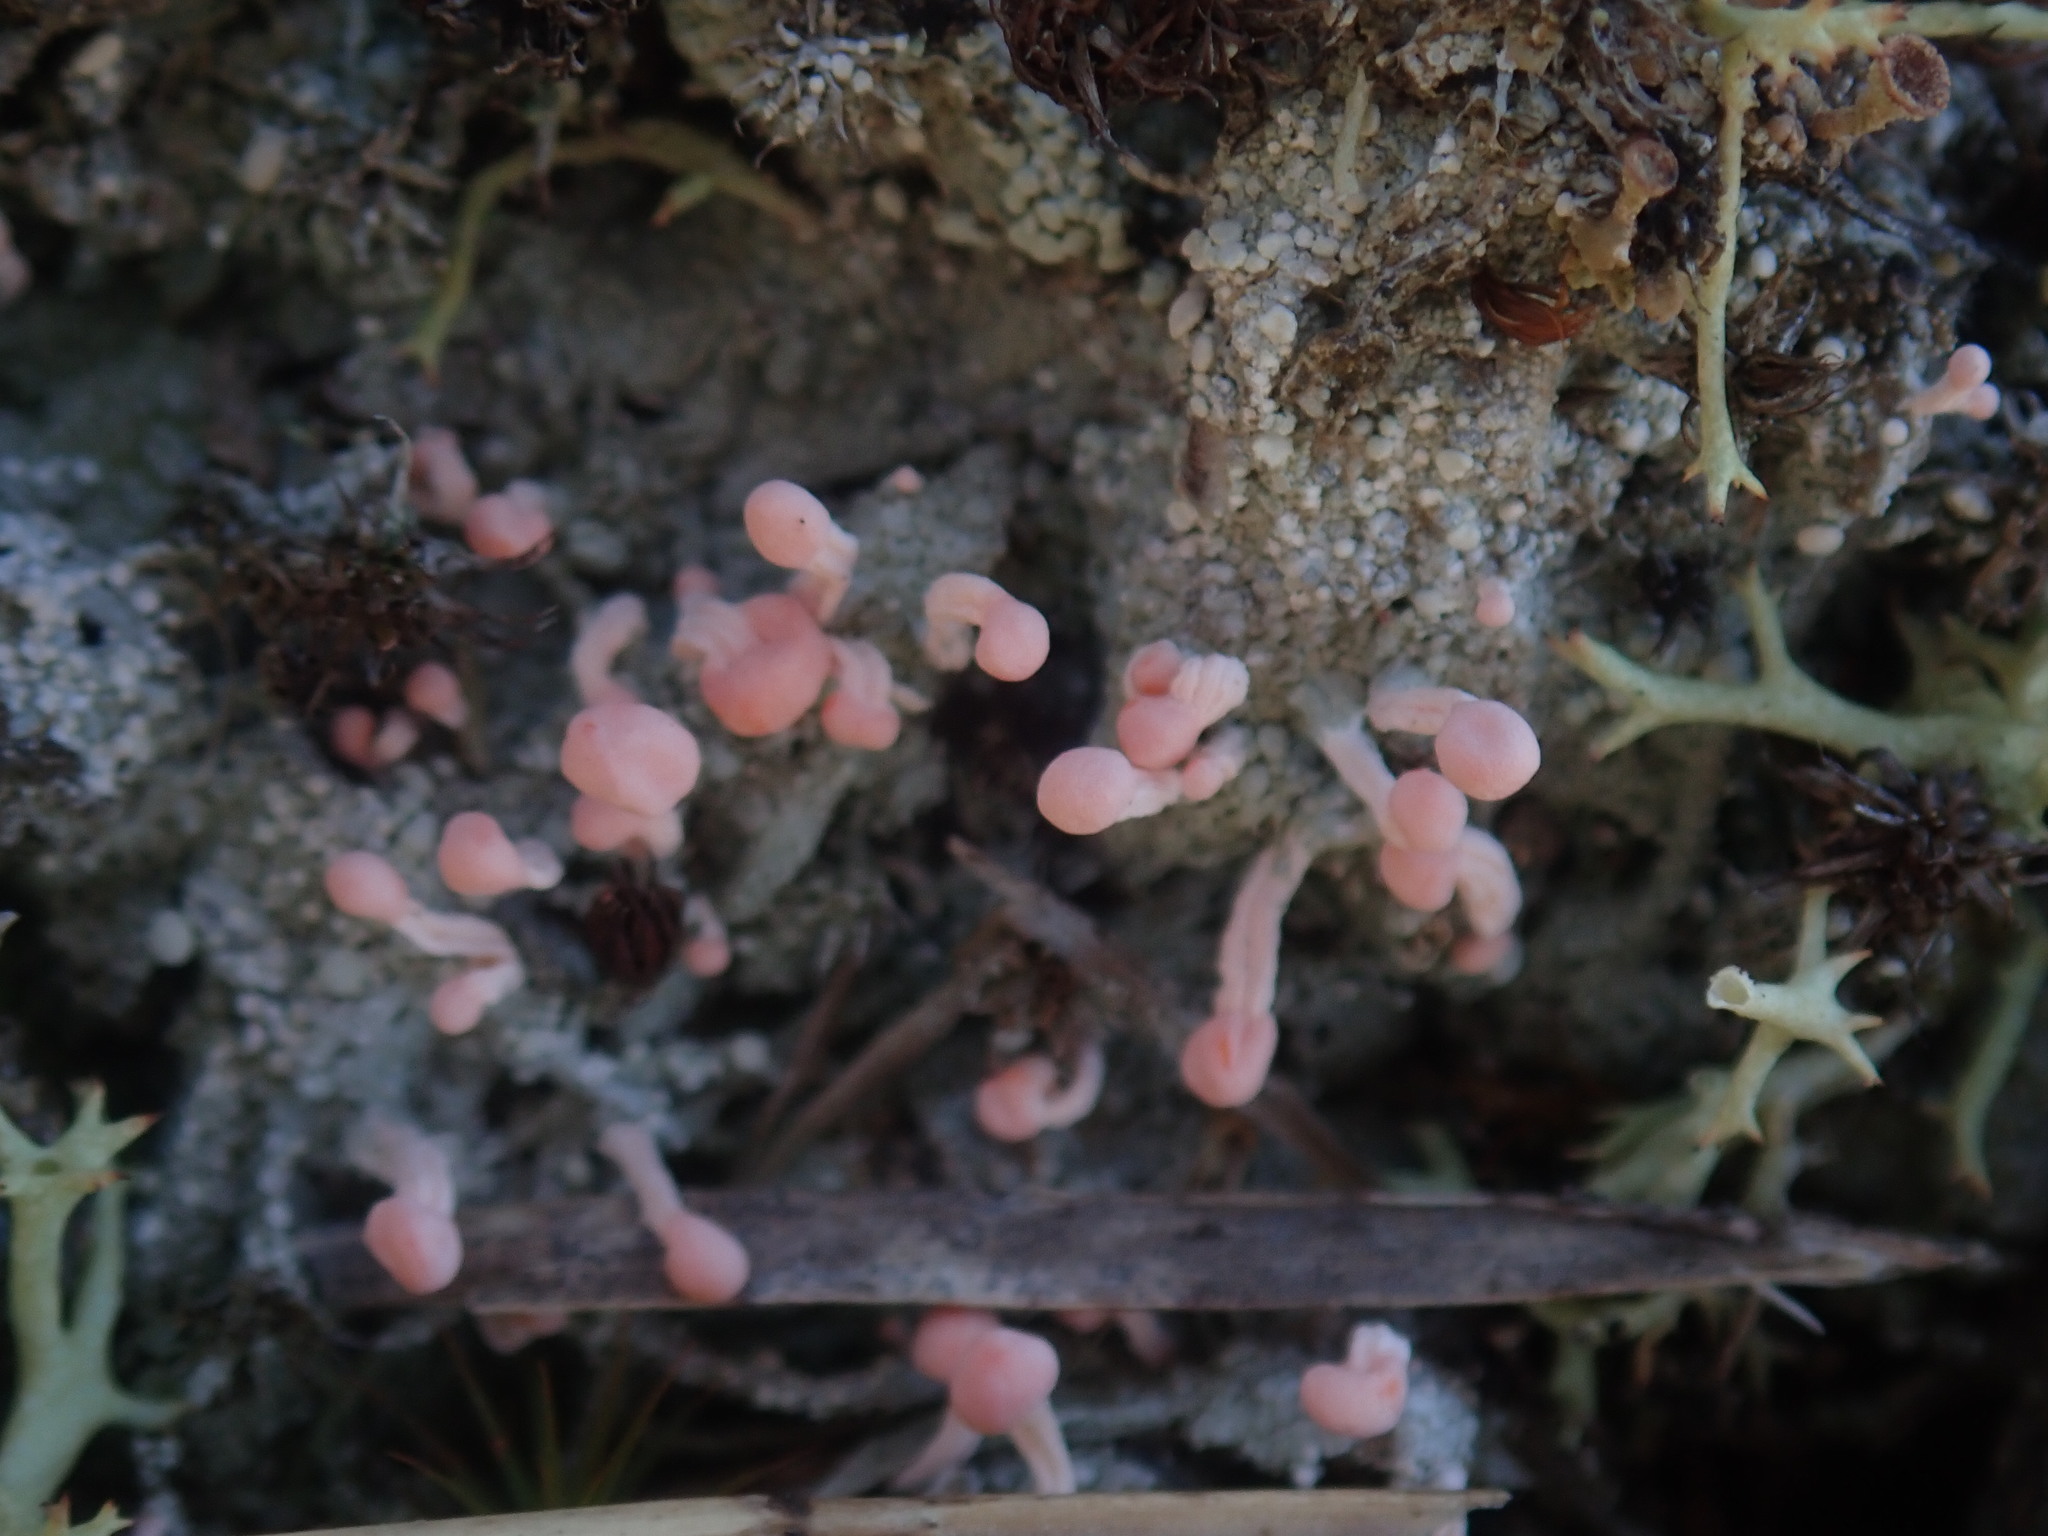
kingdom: Fungi
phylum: Ascomycota
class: Lecanoromycetes
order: Pertusariales
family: Icmadophilaceae
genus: Dibaeis
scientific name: Dibaeis baeomyces
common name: Pink earth lichen
